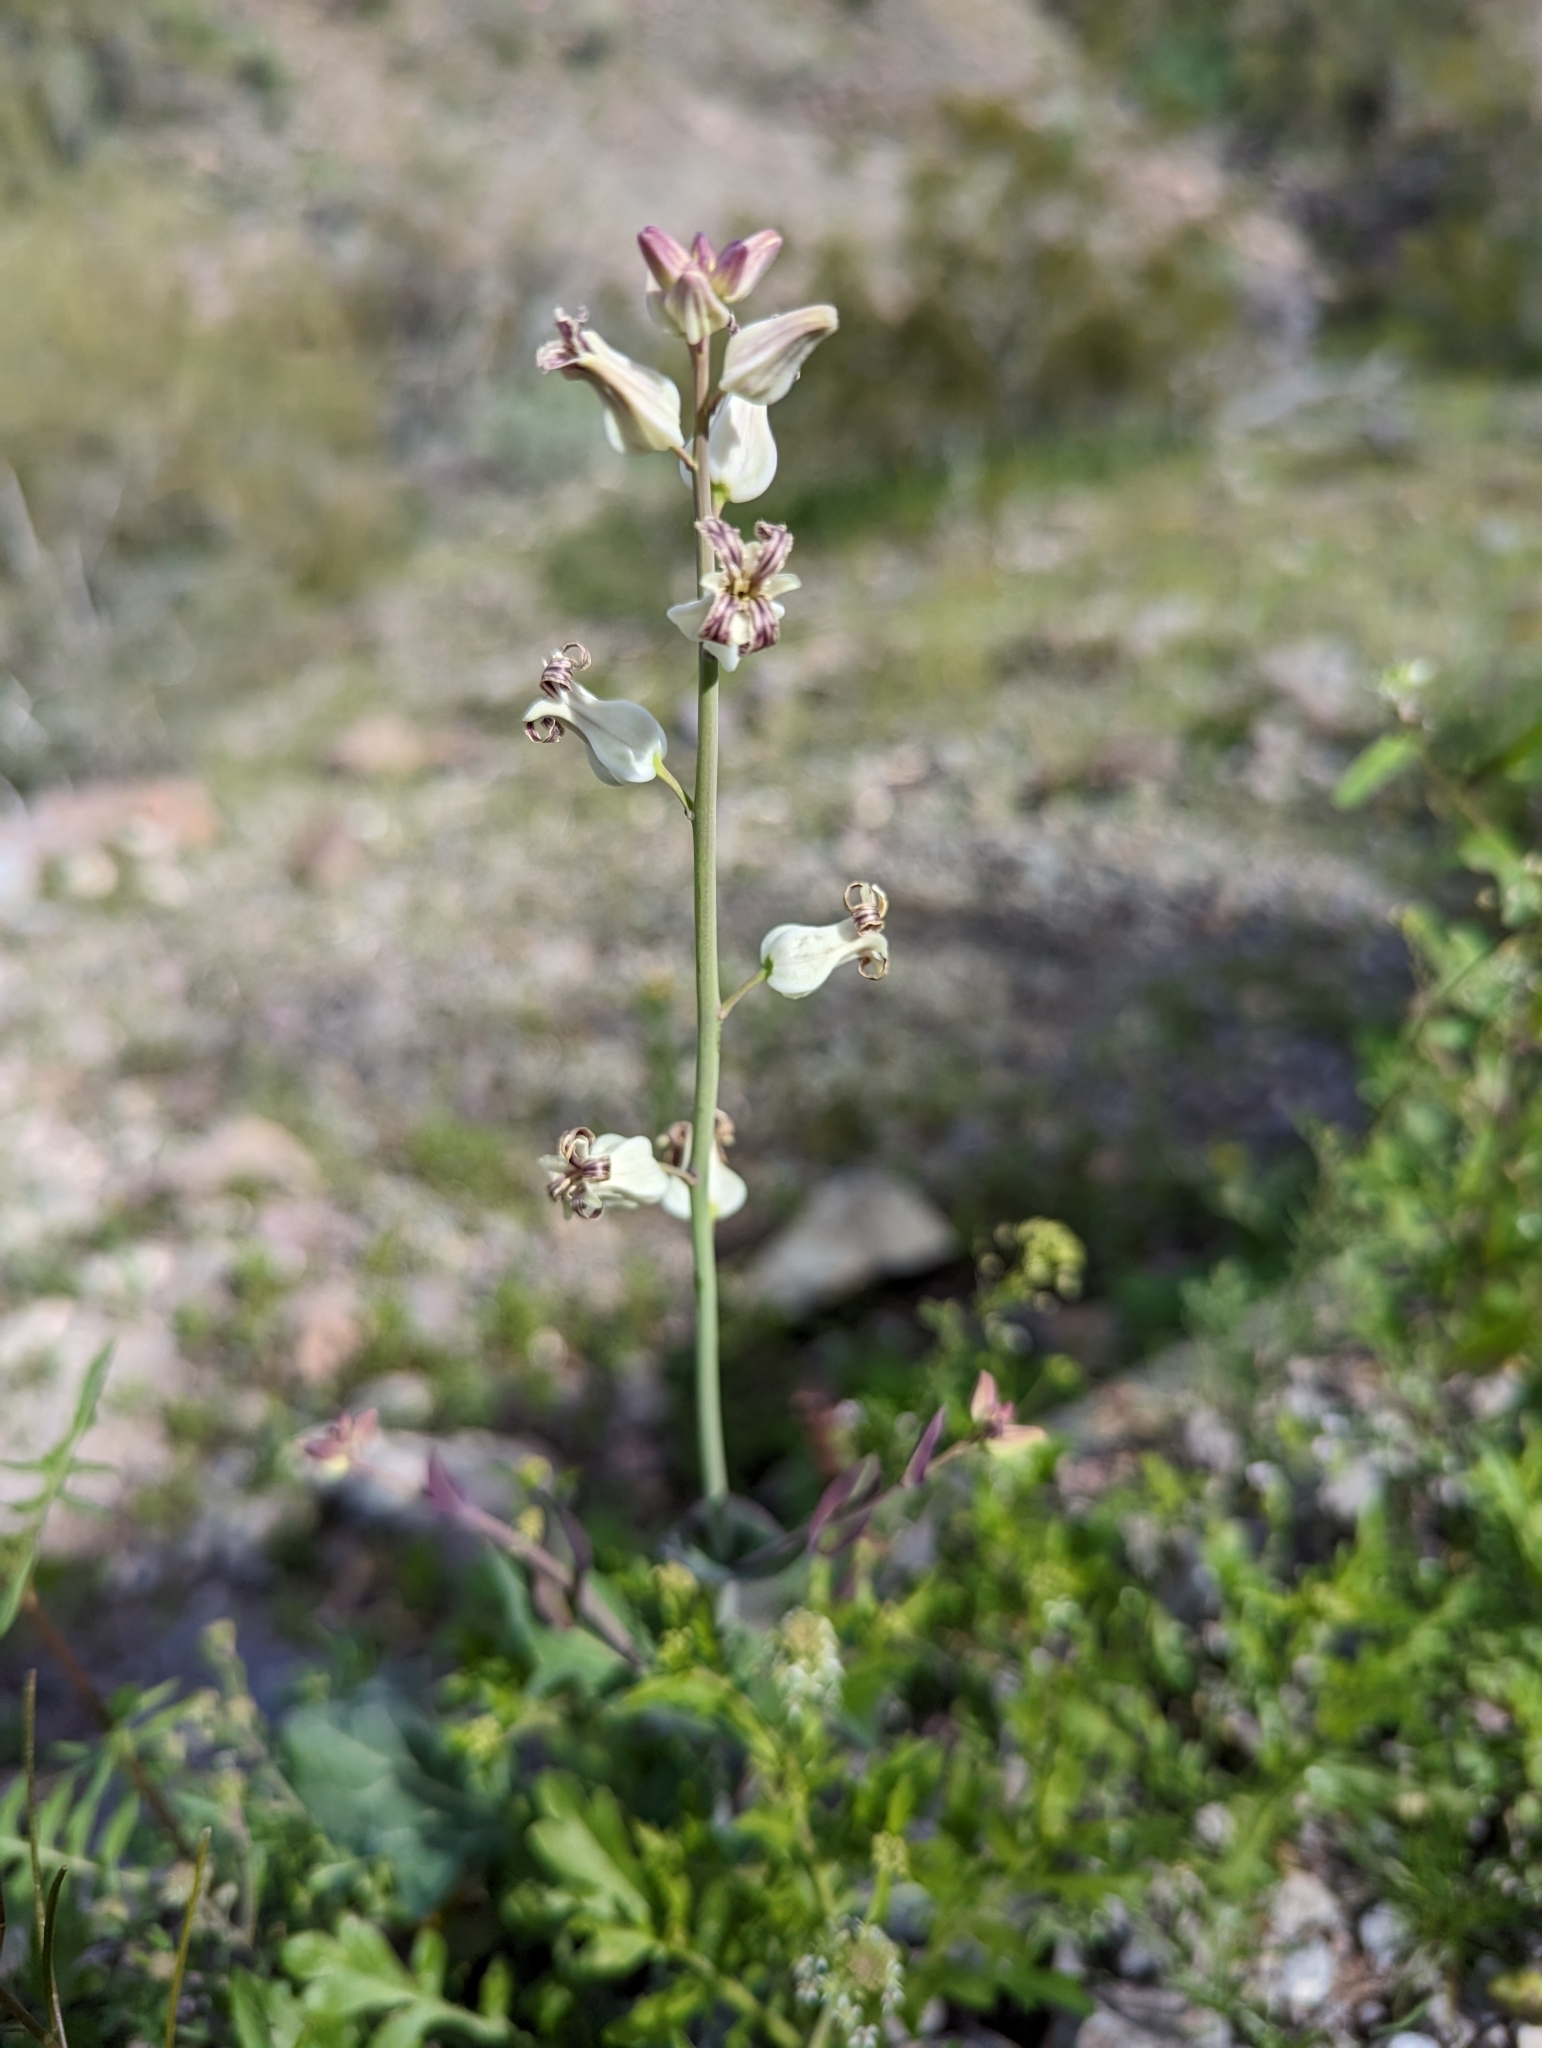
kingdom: Plantae
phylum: Tracheophyta
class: Magnoliopsida
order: Brassicales
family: Brassicaceae
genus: Streptanthus
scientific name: Streptanthus carinatus
